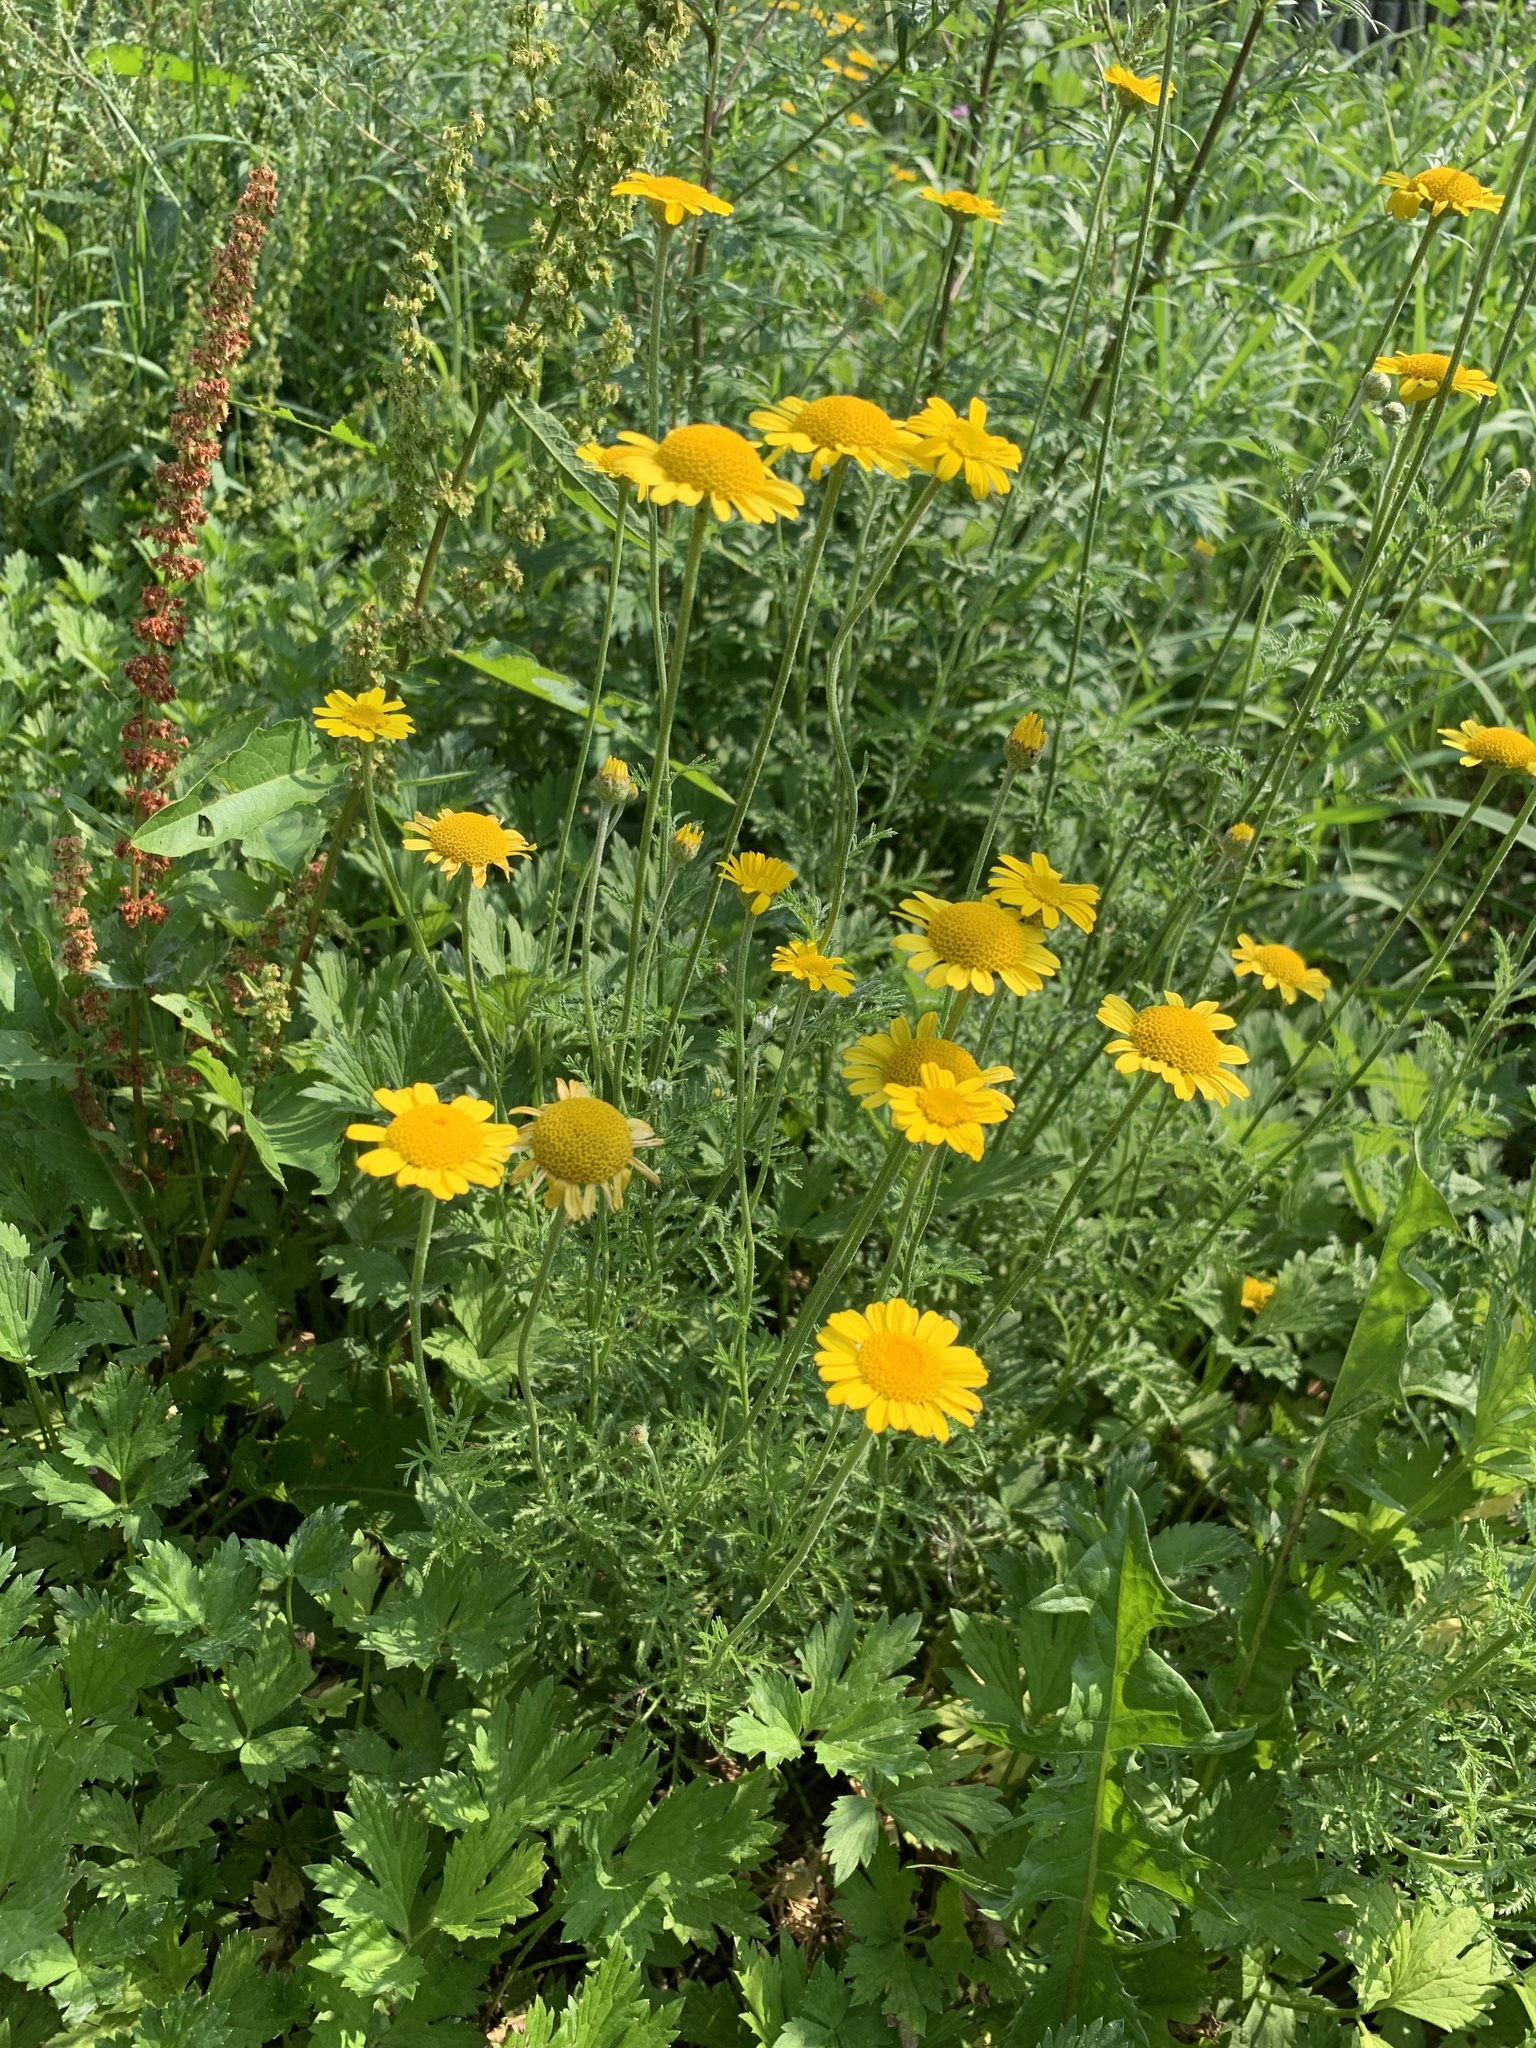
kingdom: Plantae
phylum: Tracheophyta
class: Magnoliopsida
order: Asterales
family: Asteraceae
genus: Cota
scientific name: Cota tinctoria
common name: Golden chamomile
